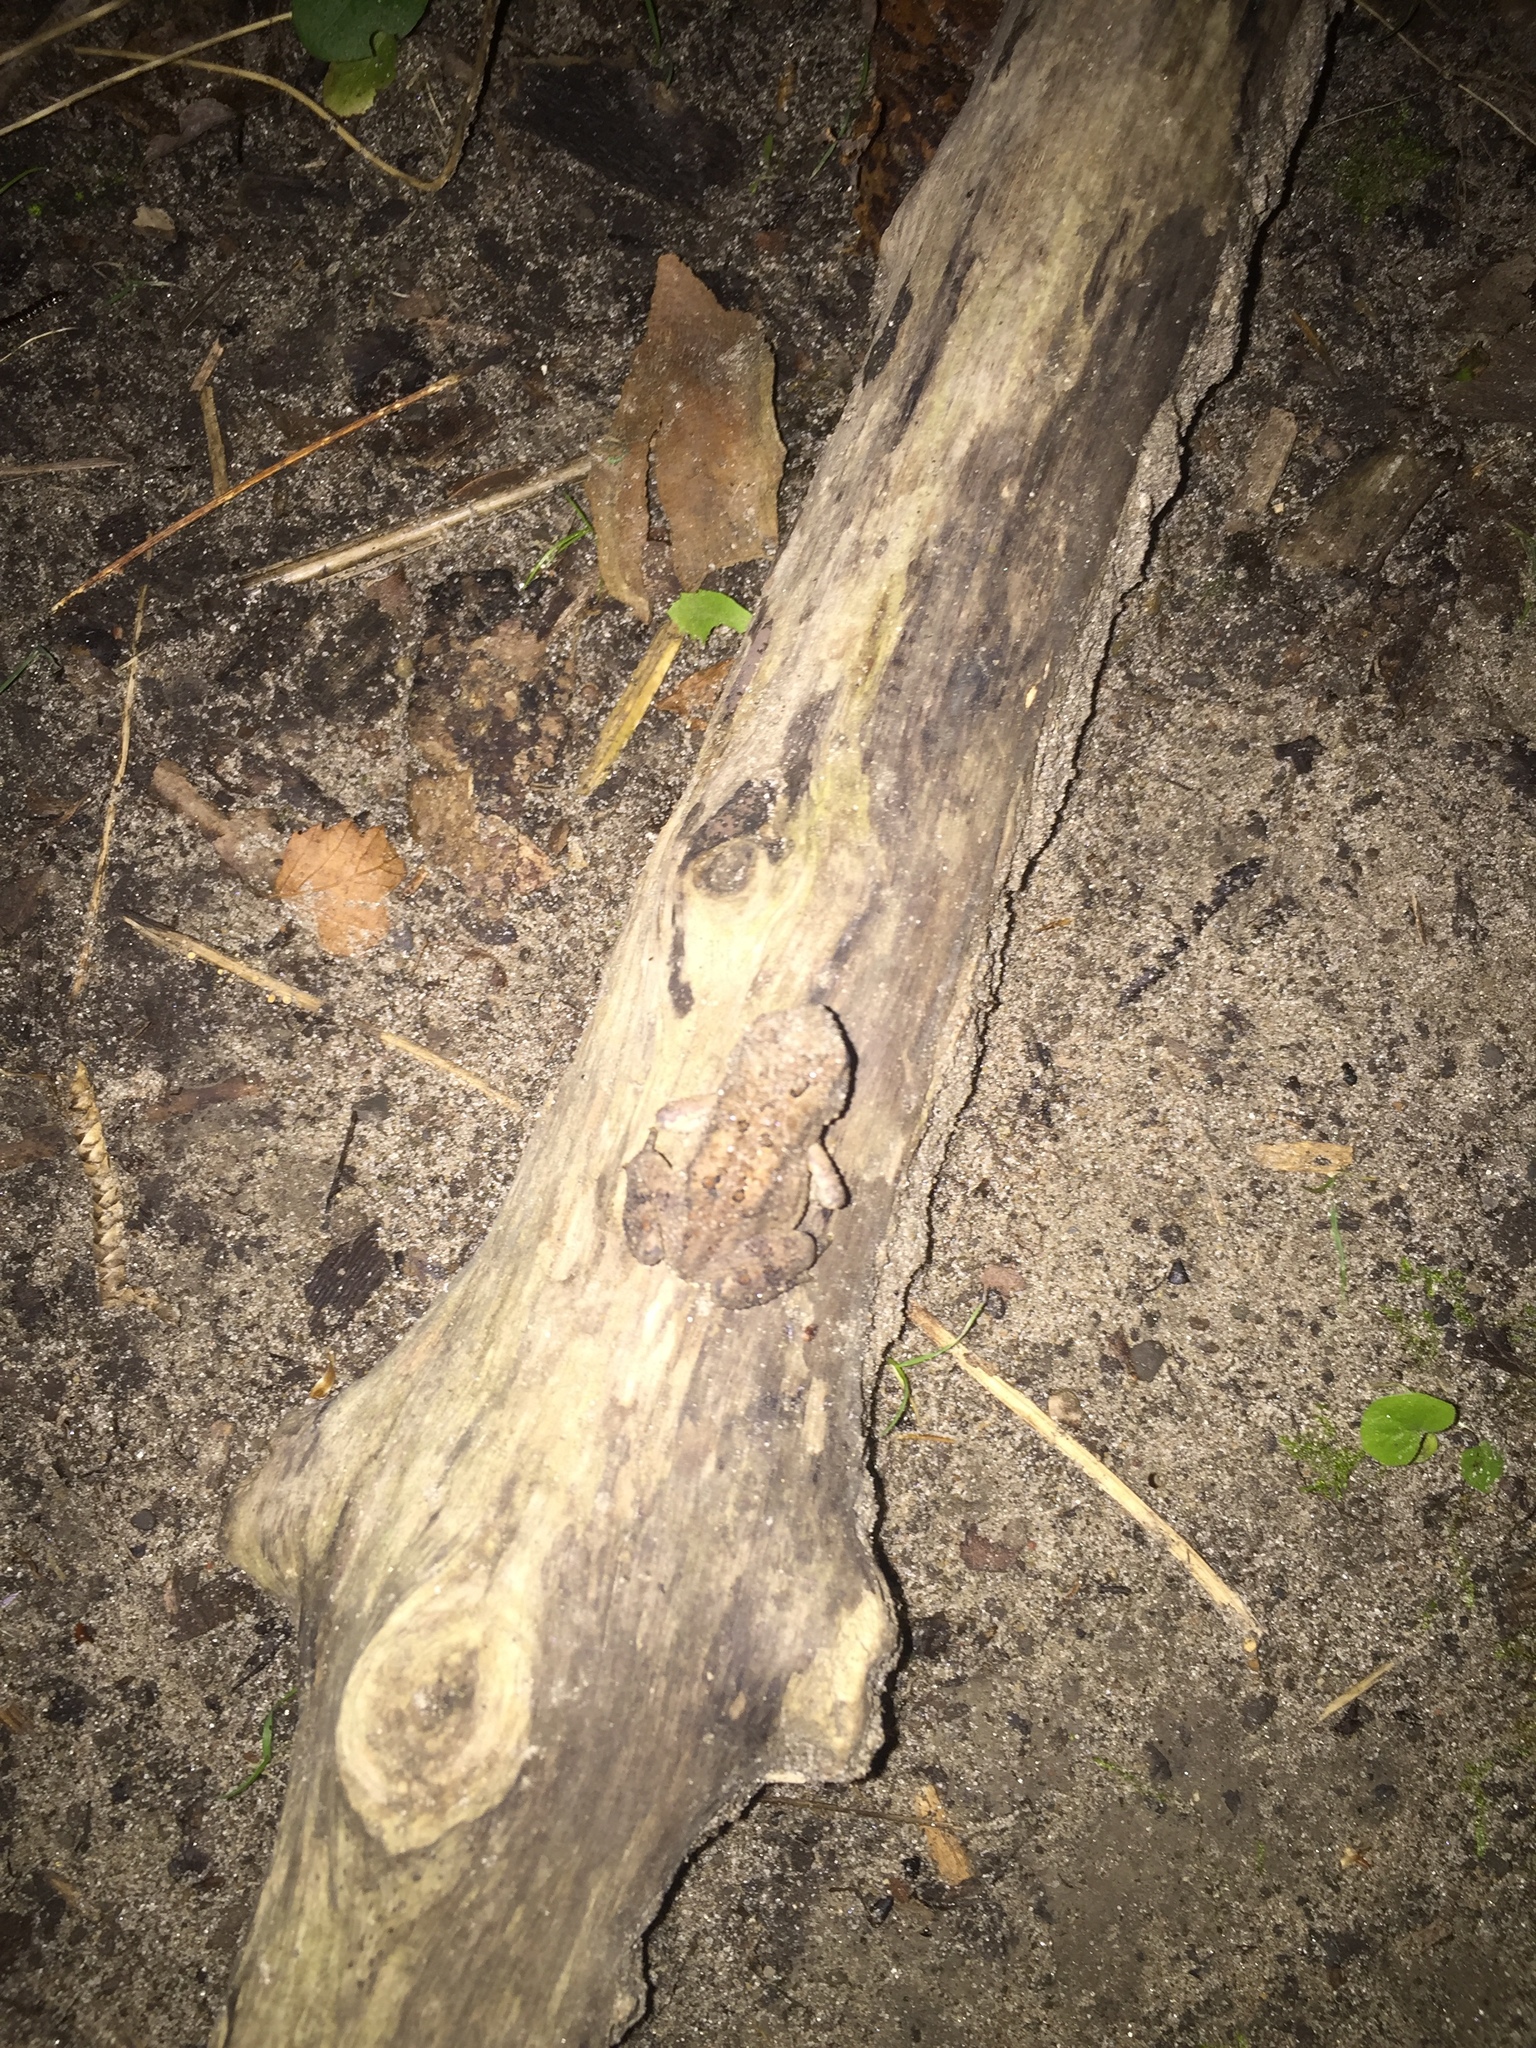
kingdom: Animalia
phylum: Chordata
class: Amphibia
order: Anura
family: Bufonidae
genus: Anaxyrus
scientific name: Anaxyrus americanus
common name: American toad
